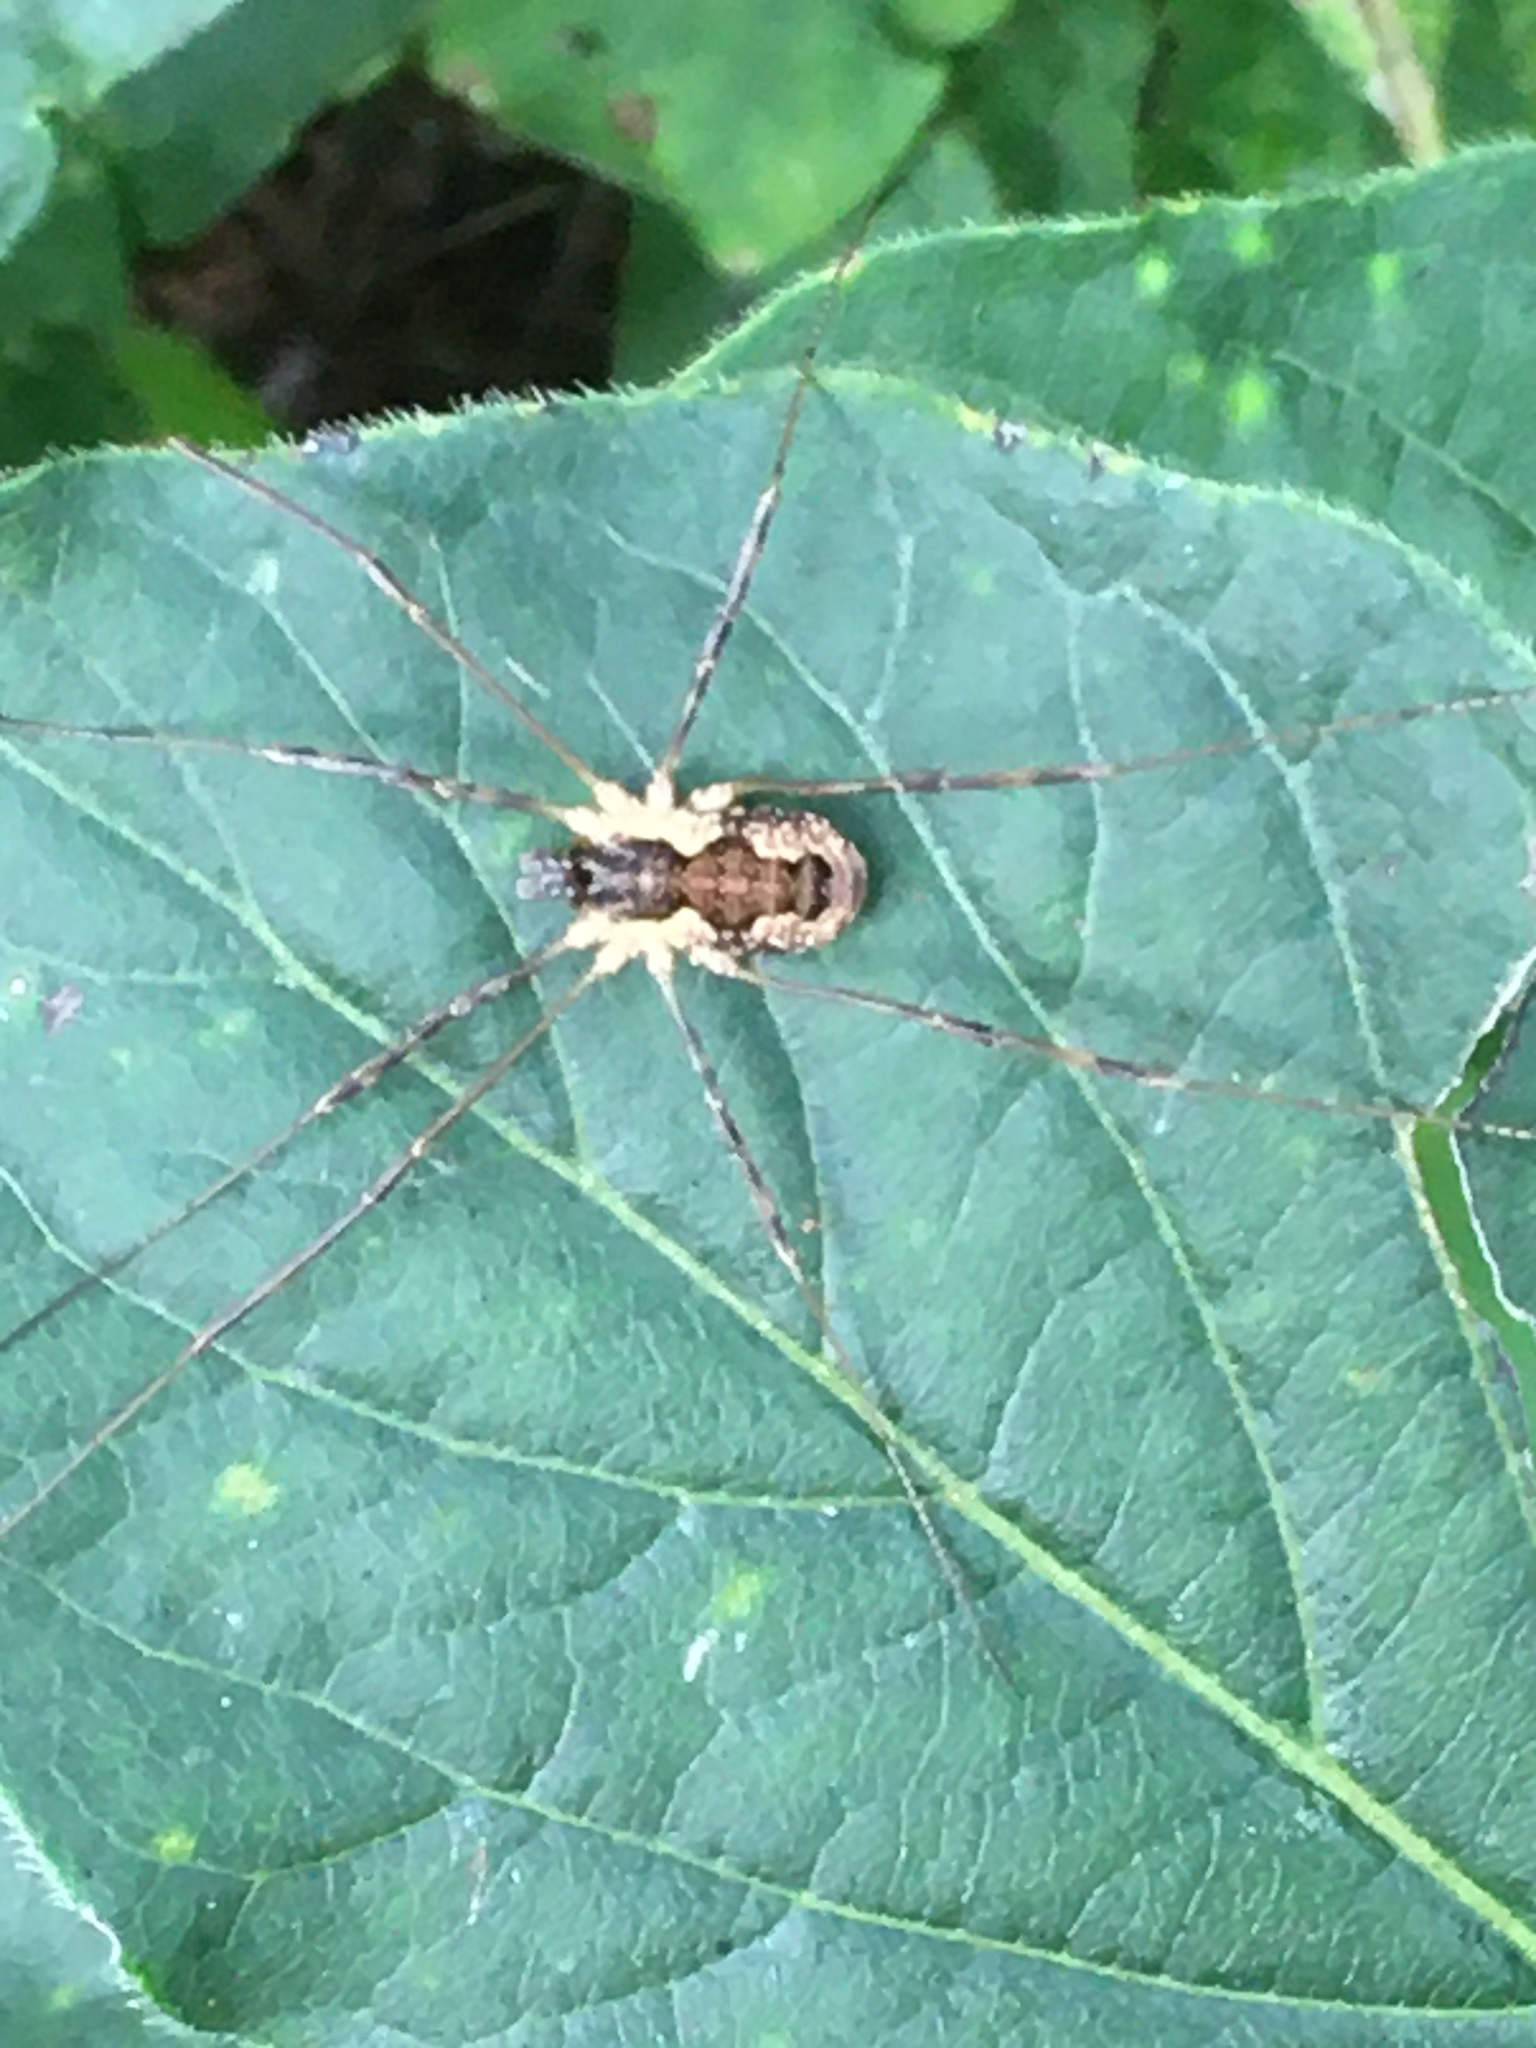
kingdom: Animalia
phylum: Arthropoda
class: Arachnida
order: Opiliones
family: Phalangiidae
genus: Mitopus
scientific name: Mitopus morio
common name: Saddleback harvestman
